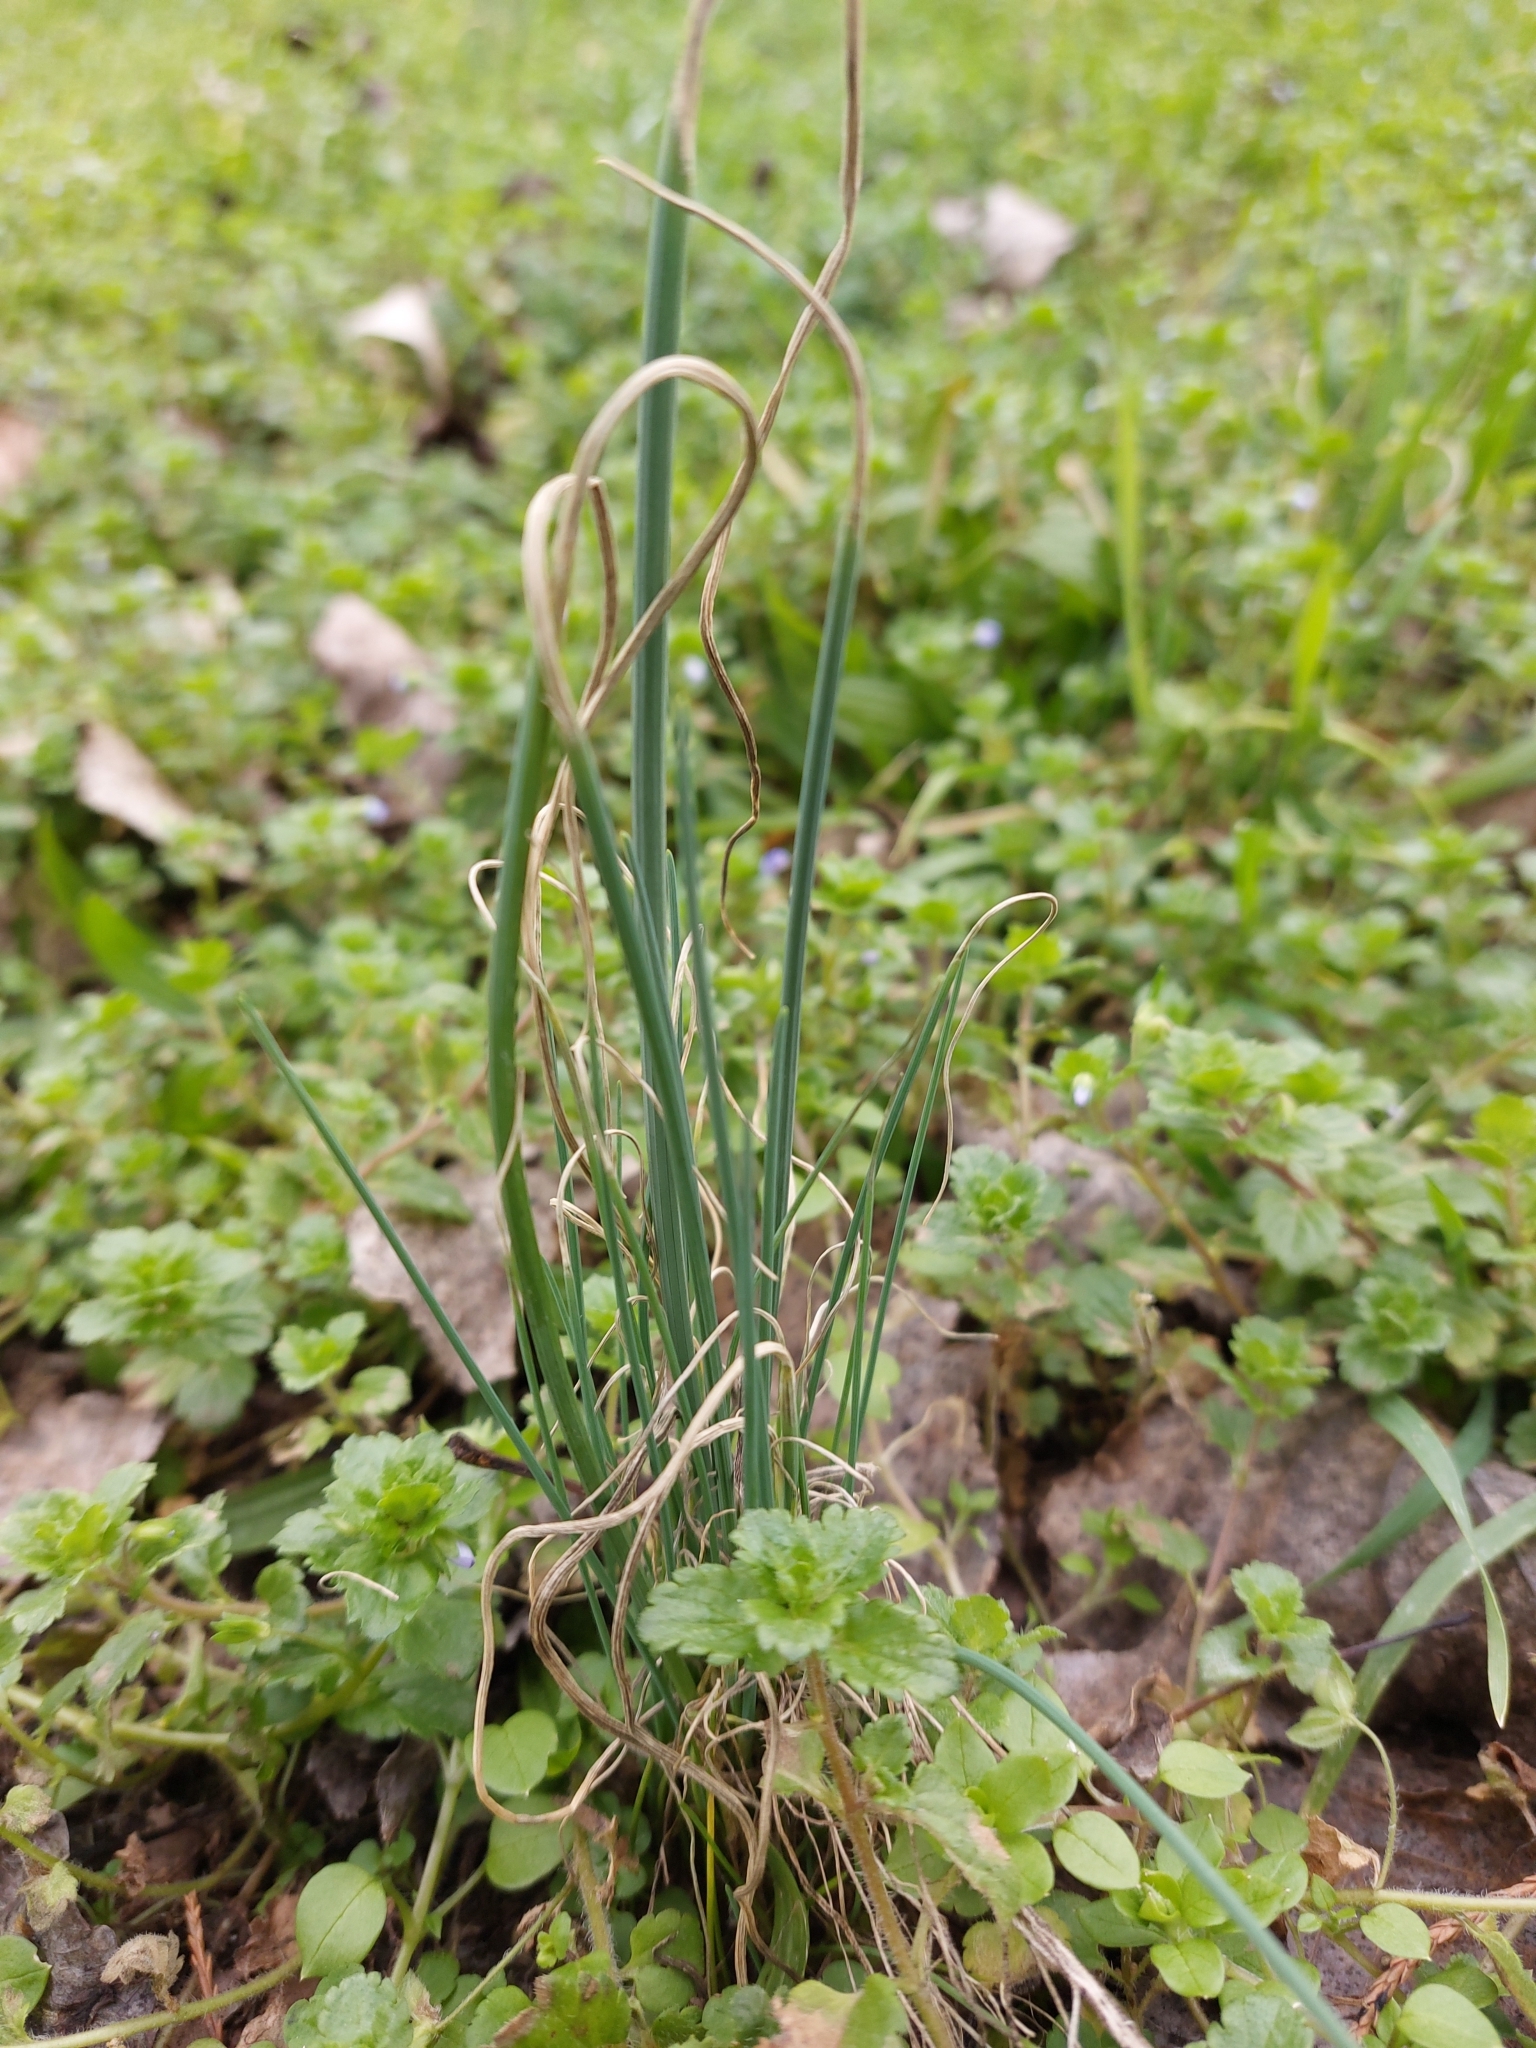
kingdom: Plantae
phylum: Tracheophyta
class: Liliopsida
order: Asparagales
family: Amaryllidaceae
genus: Allium
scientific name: Allium vineale
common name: Crow garlic
